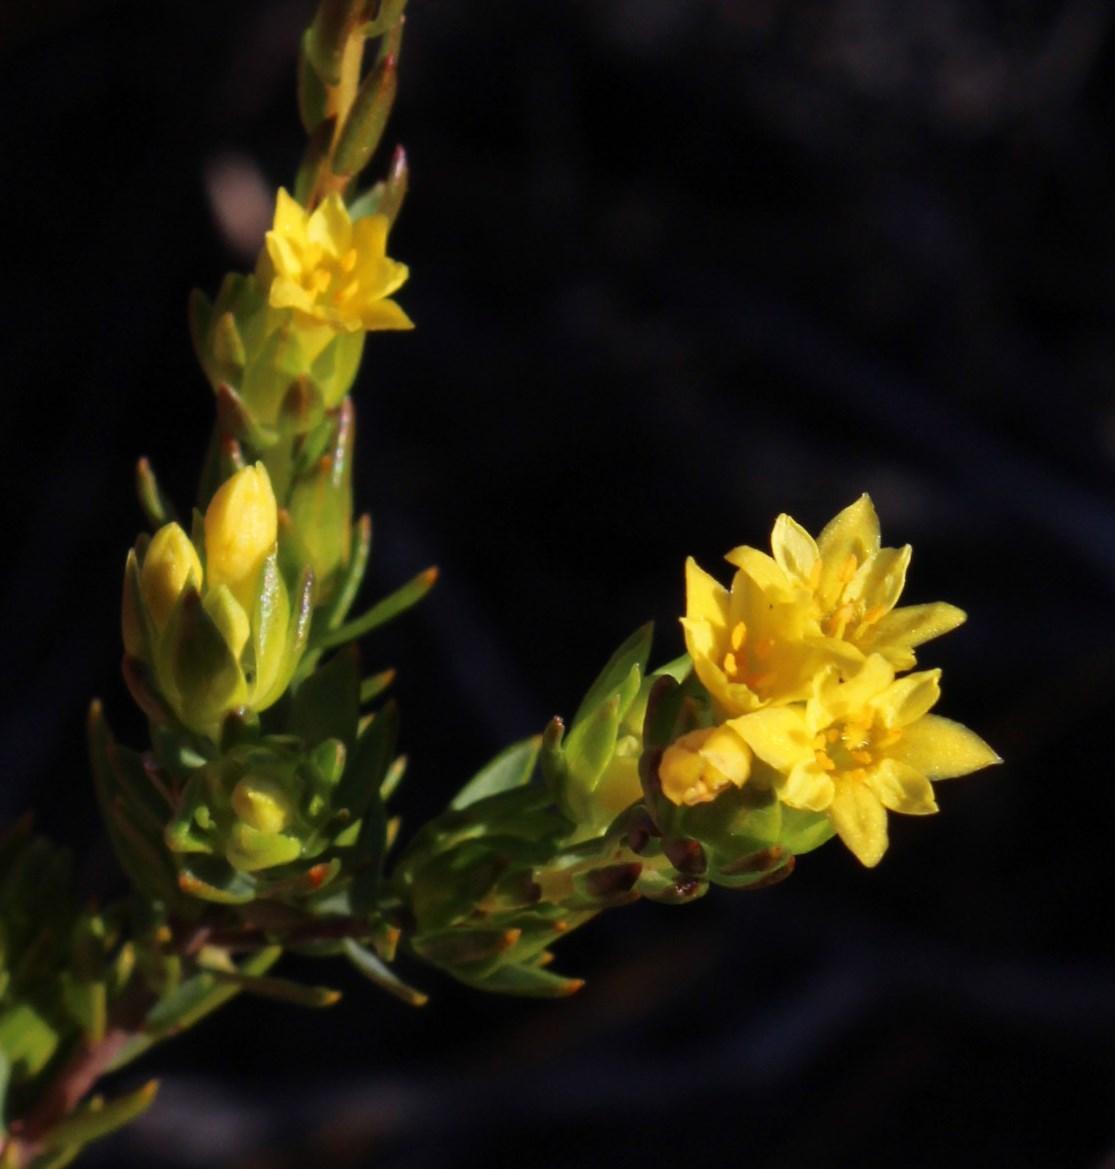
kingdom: Plantae
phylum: Tracheophyta
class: Magnoliopsida
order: Malvales
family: Thymelaeaceae
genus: Gnidia
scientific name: Gnidia juniperifolia
